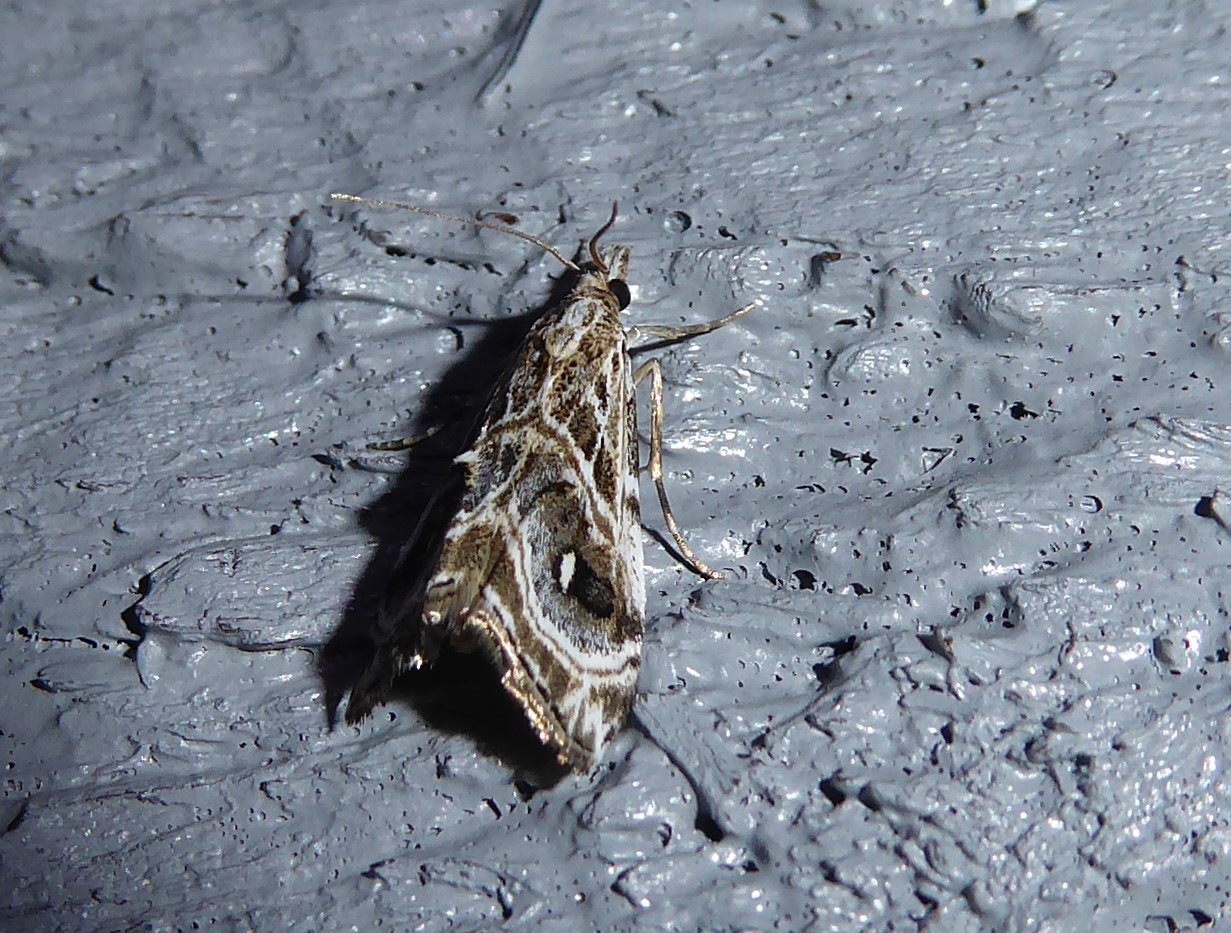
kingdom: Animalia
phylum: Arthropoda
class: Insecta
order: Lepidoptera
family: Crambidae
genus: Gadira
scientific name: Gadira acerella
